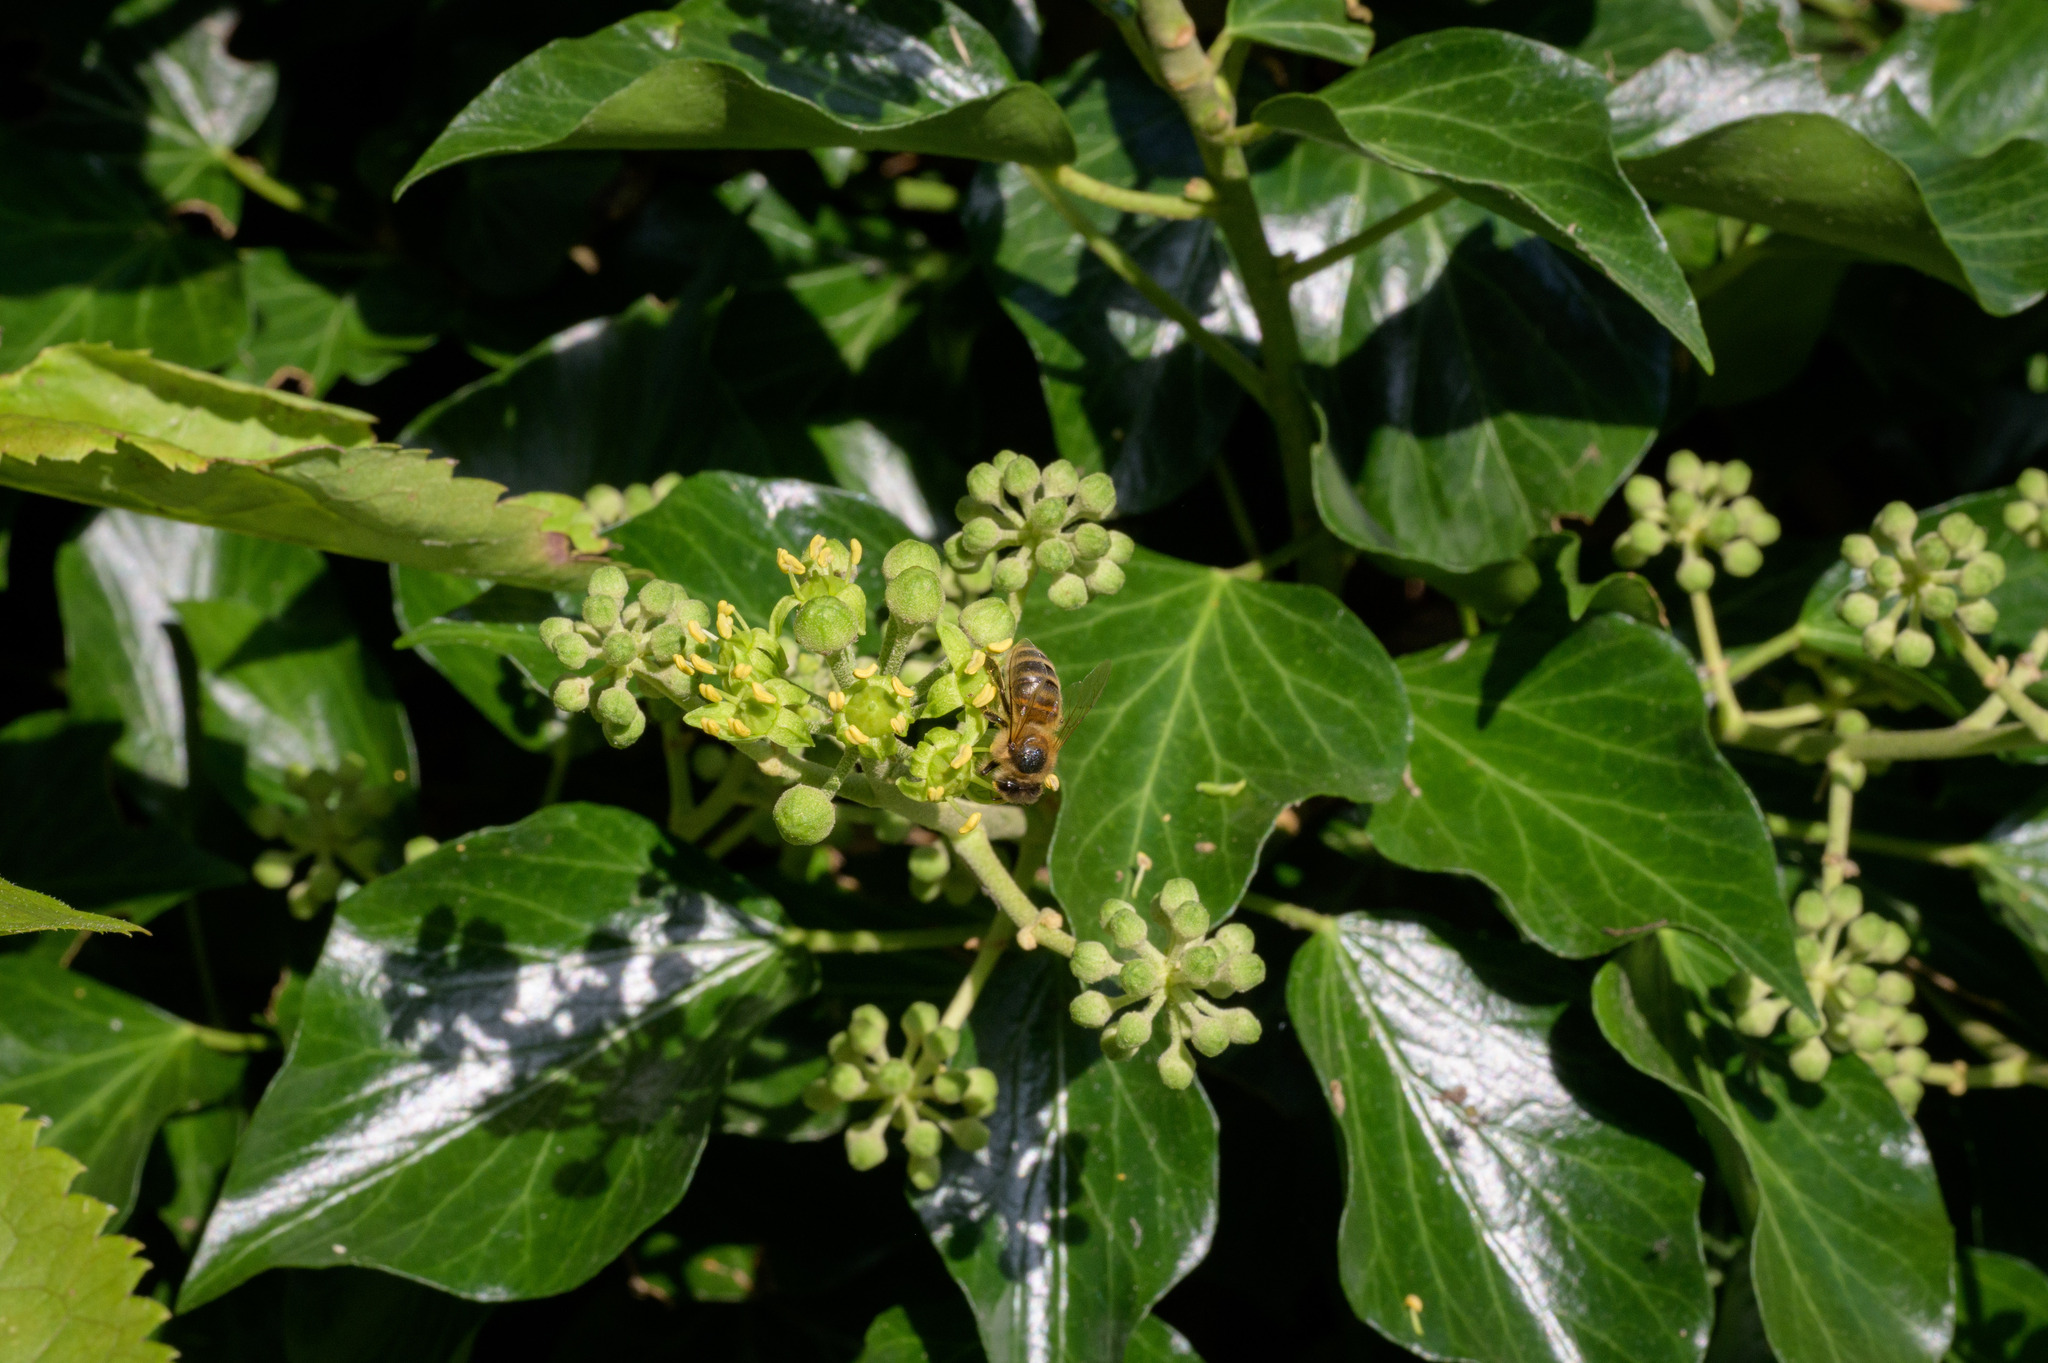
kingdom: Animalia
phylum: Arthropoda
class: Insecta
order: Hymenoptera
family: Apidae
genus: Apis
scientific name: Apis mellifera
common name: Honey bee
